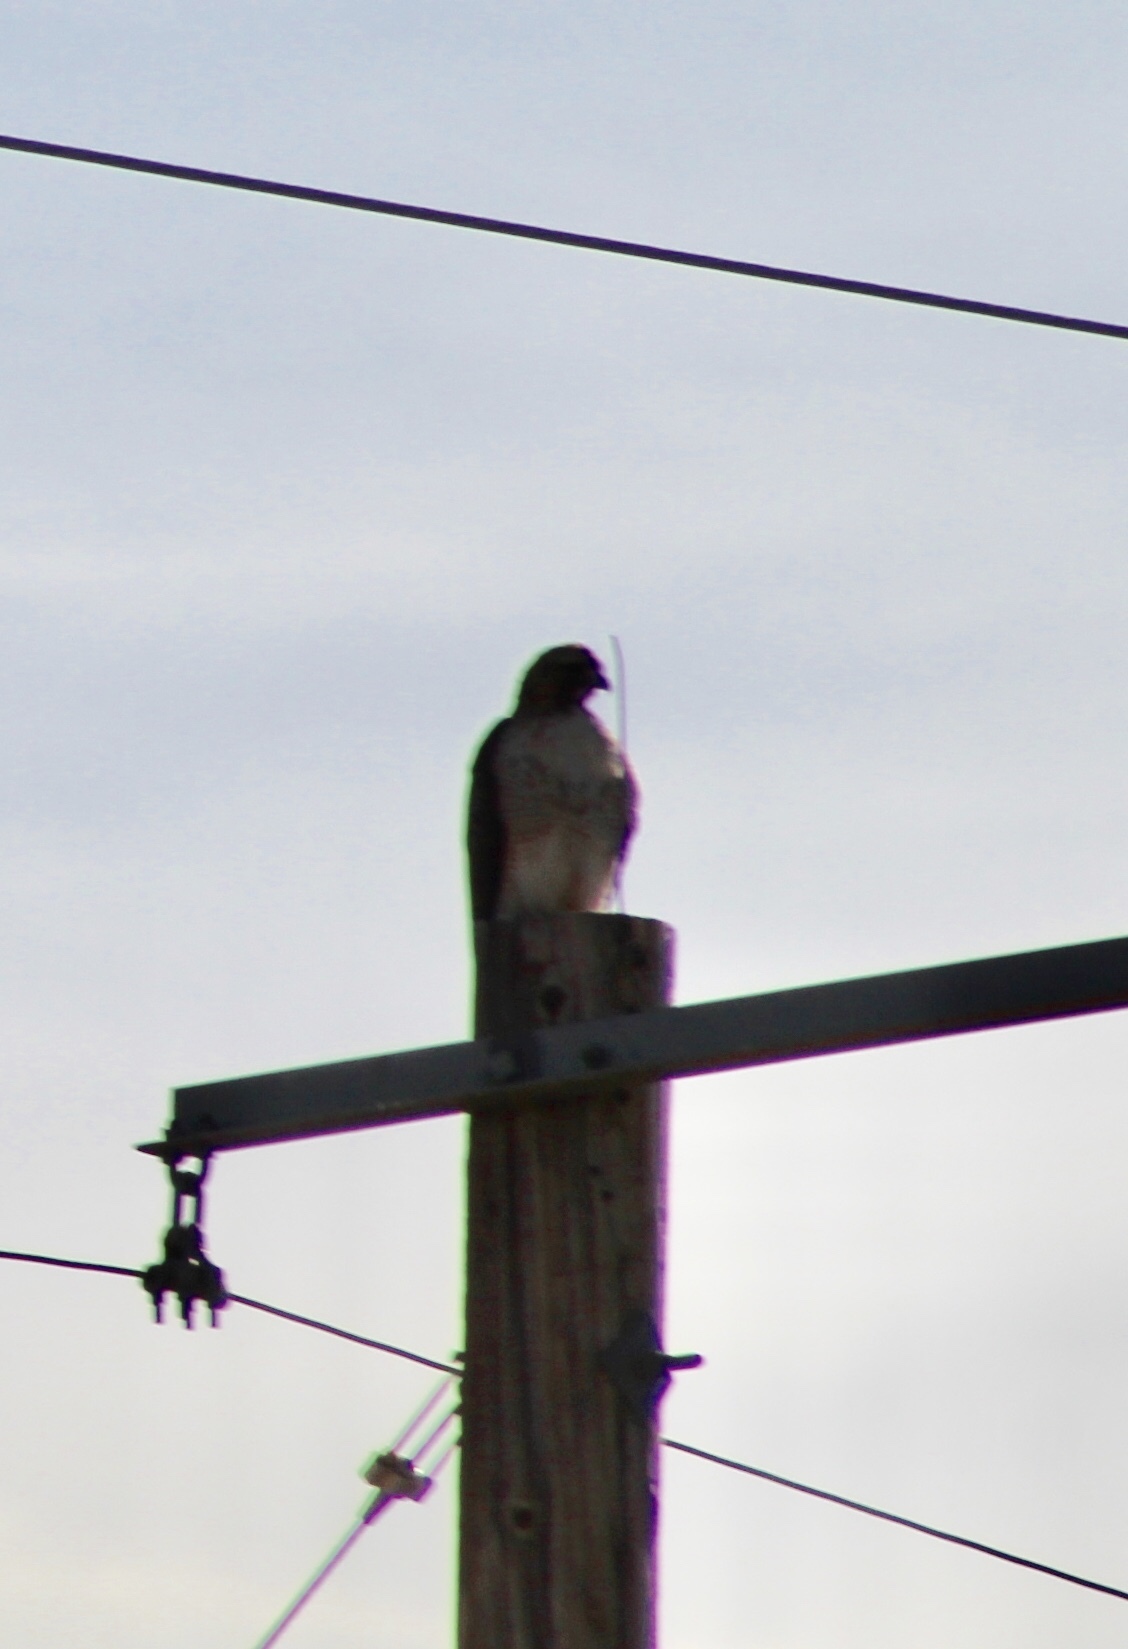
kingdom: Animalia
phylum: Chordata
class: Aves
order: Accipitriformes
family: Accipitridae
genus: Buteo
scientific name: Buteo jamaicensis
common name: Red-tailed hawk
